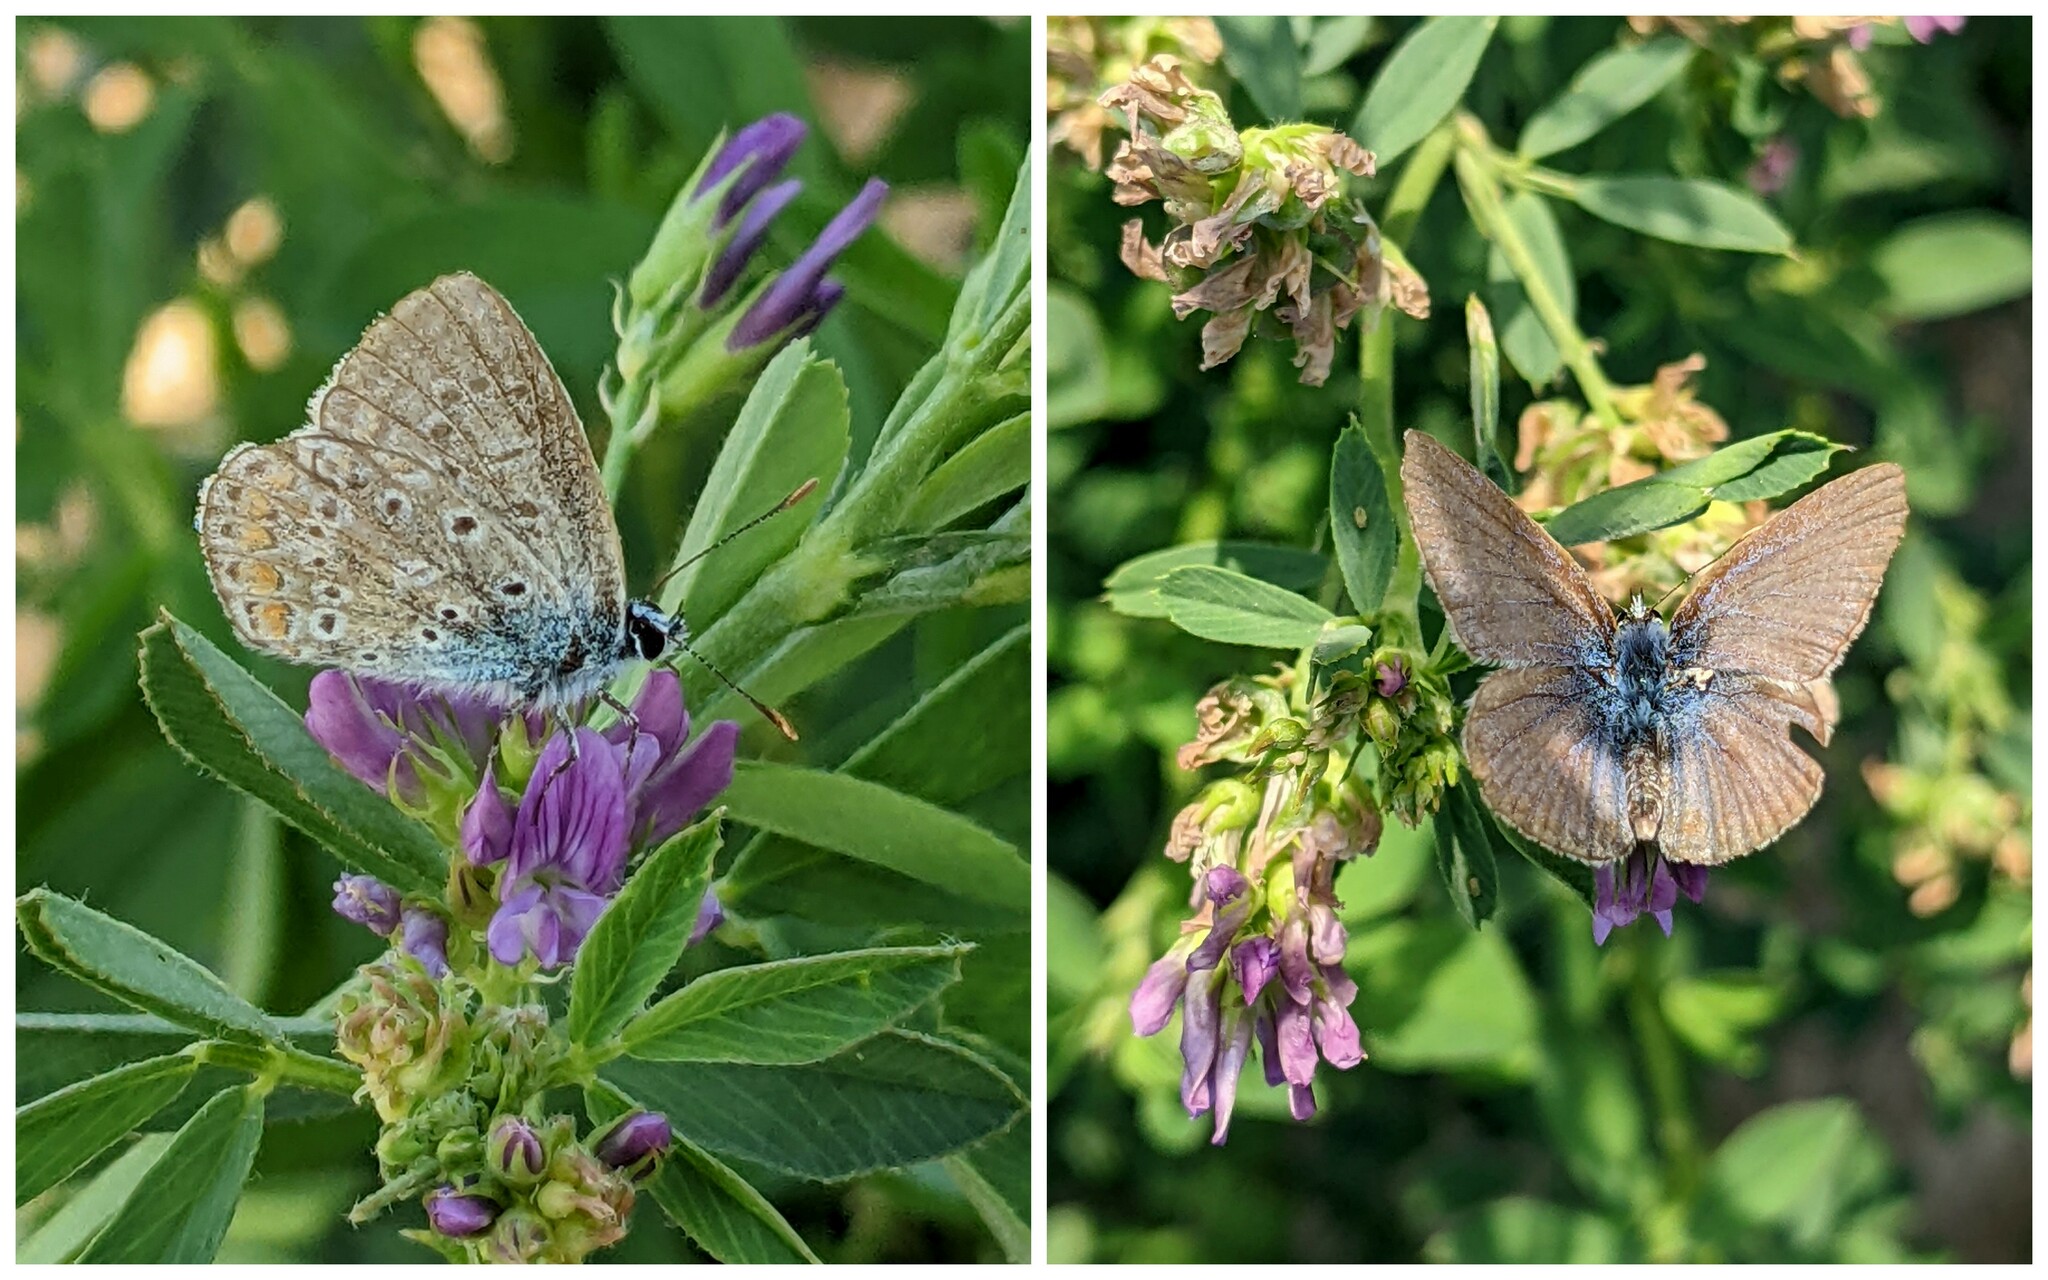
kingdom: Animalia
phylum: Arthropoda
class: Insecta
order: Lepidoptera
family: Lycaenidae
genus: Polyommatus
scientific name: Polyommatus icarus
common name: Common blue
